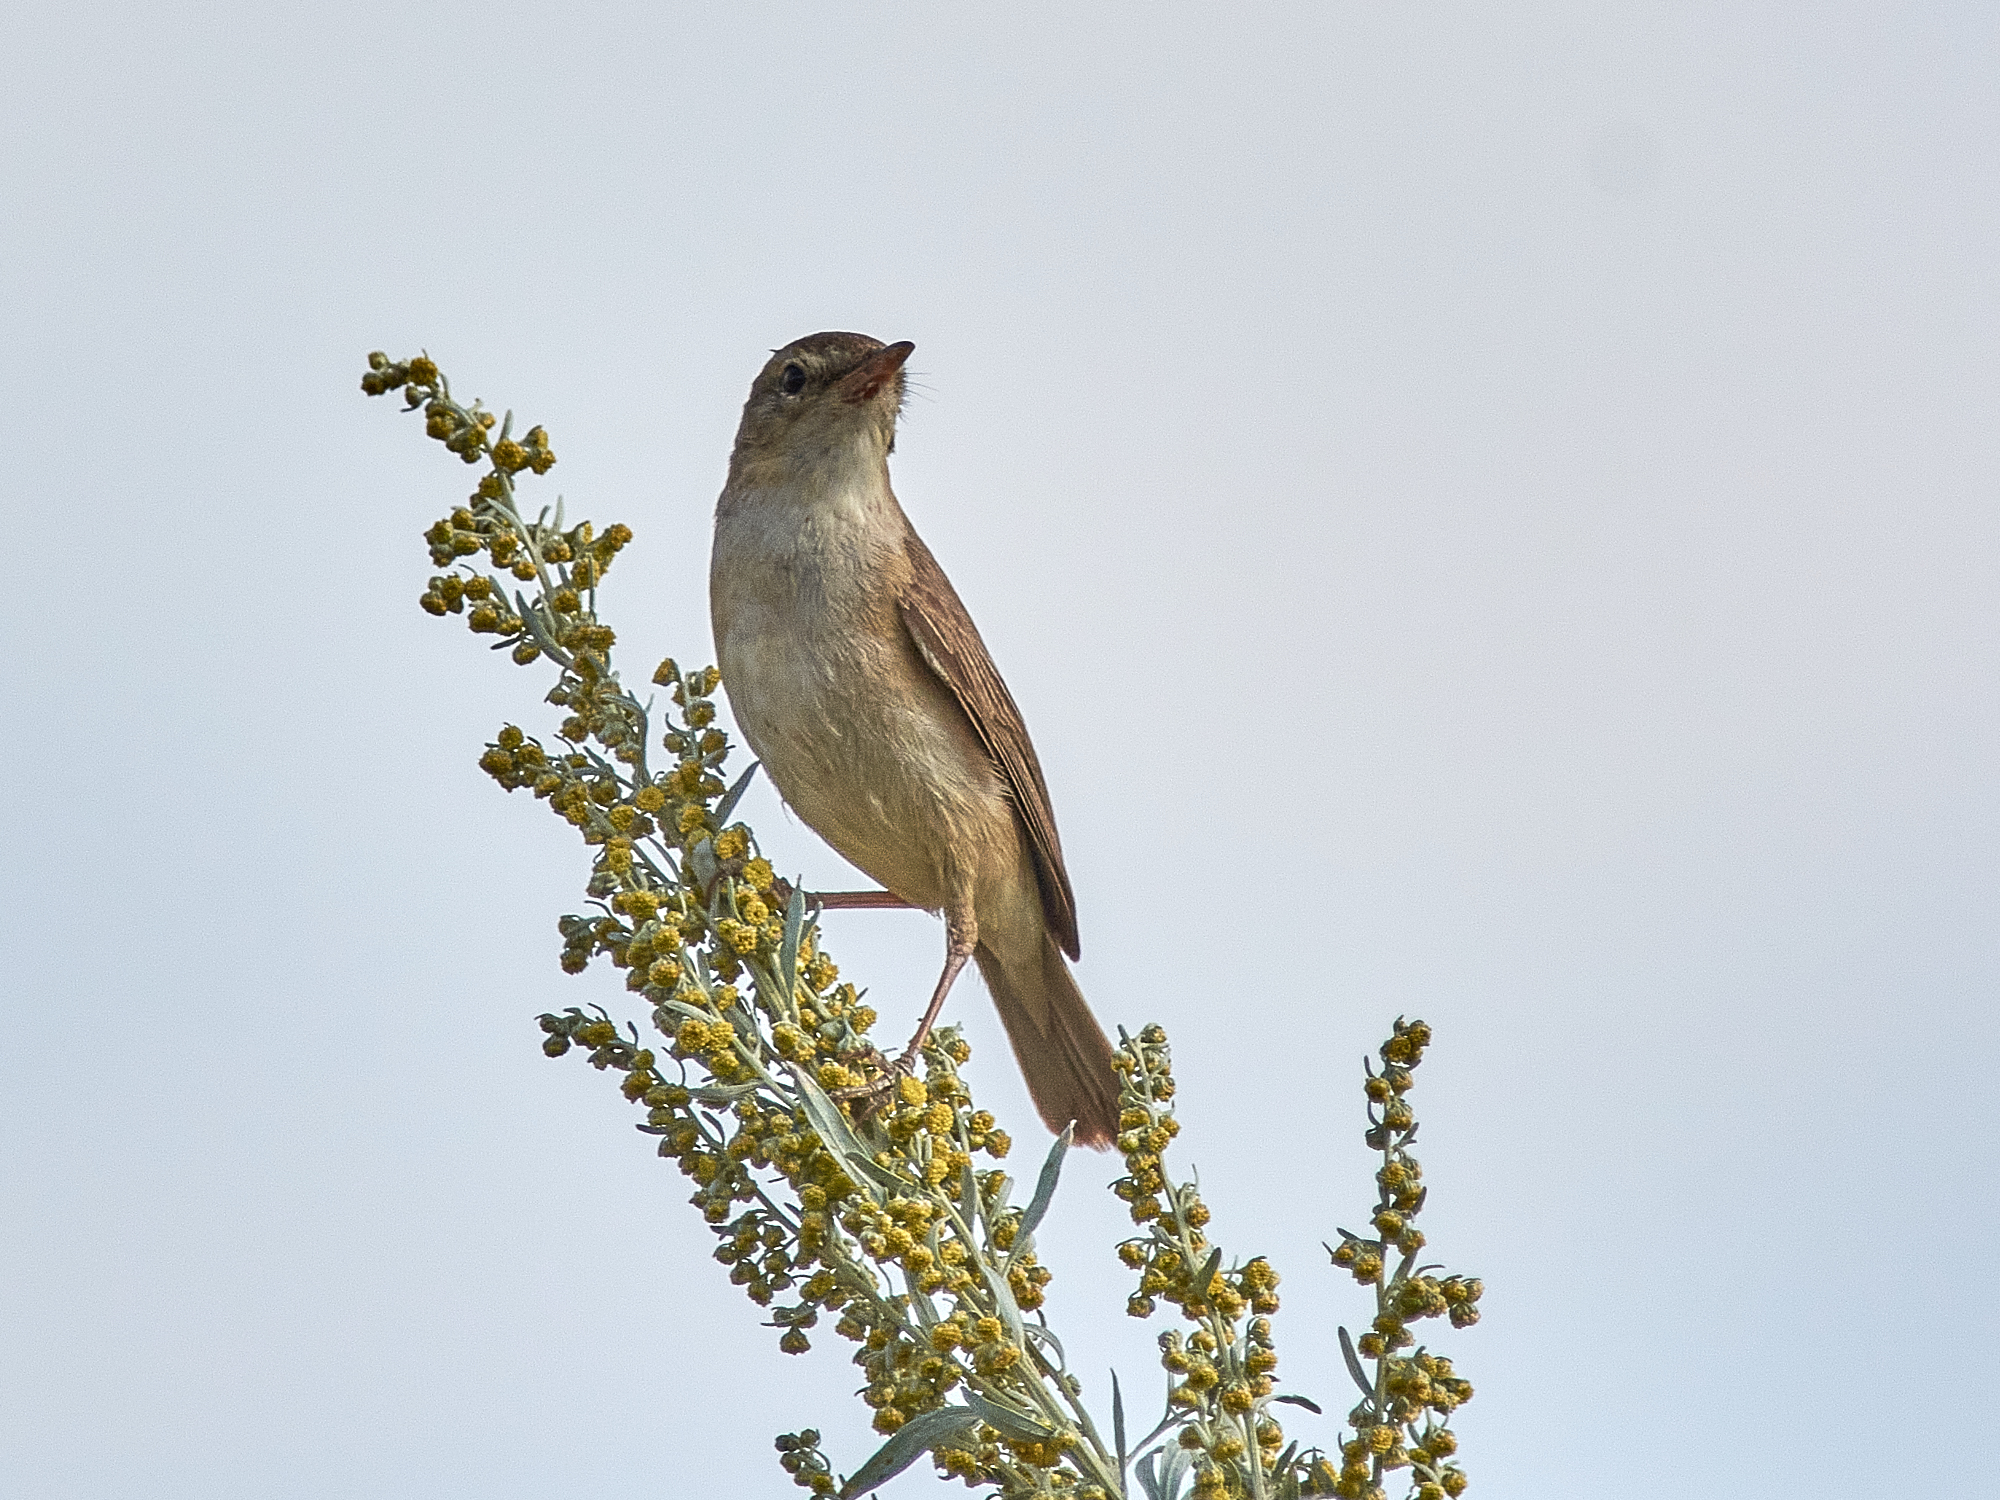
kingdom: Animalia
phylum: Chordata
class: Aves
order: Passeriformes
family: Acrocephalidae
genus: Iduna
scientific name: Iduna caligata
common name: Booted warbler
